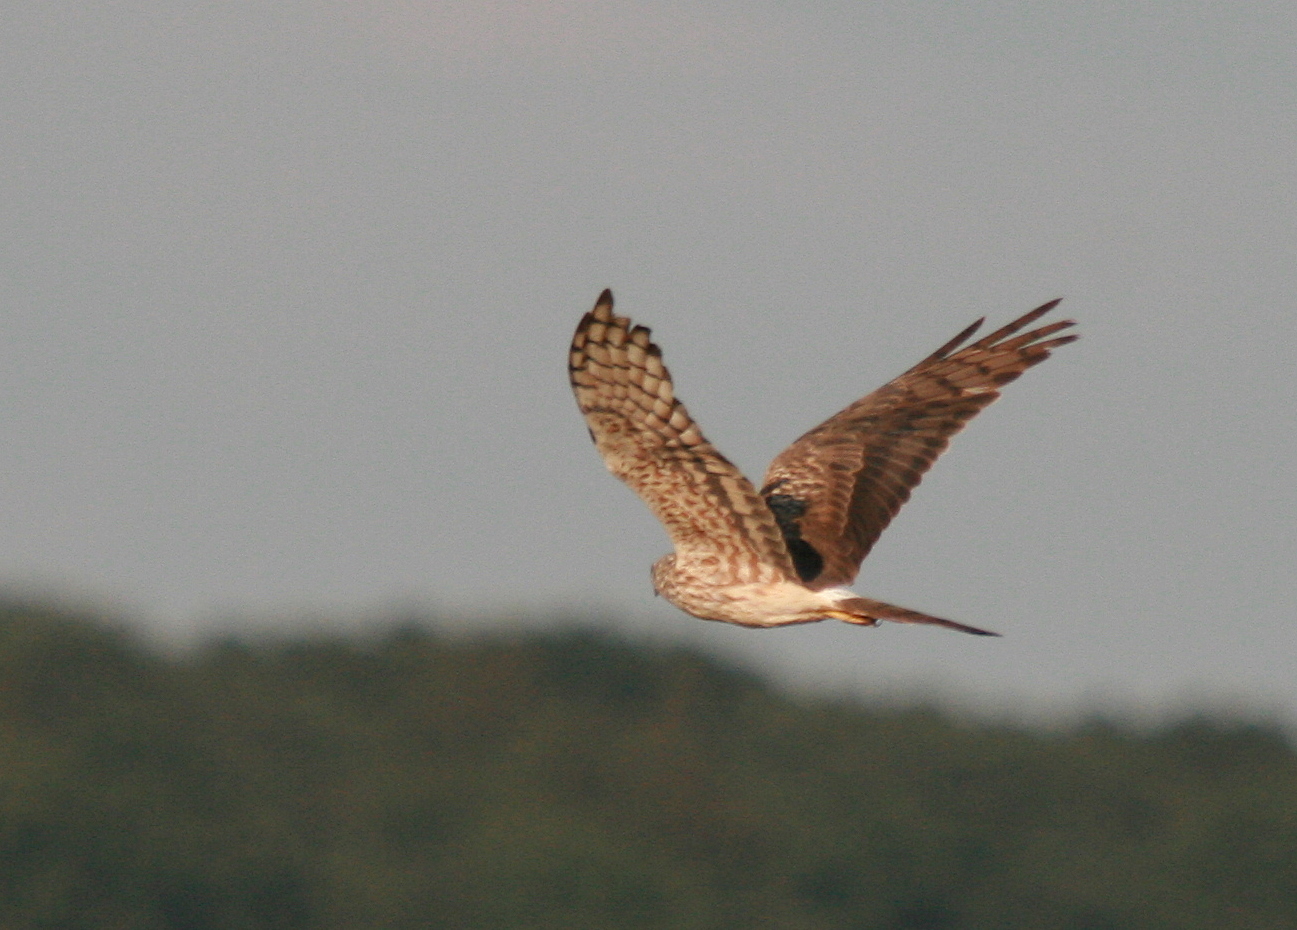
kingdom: Animalia
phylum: Chordata
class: Aves
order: Accipitriformes
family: Accipitridae
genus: Circus
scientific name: Circus pygargus
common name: Montagu's harrier
